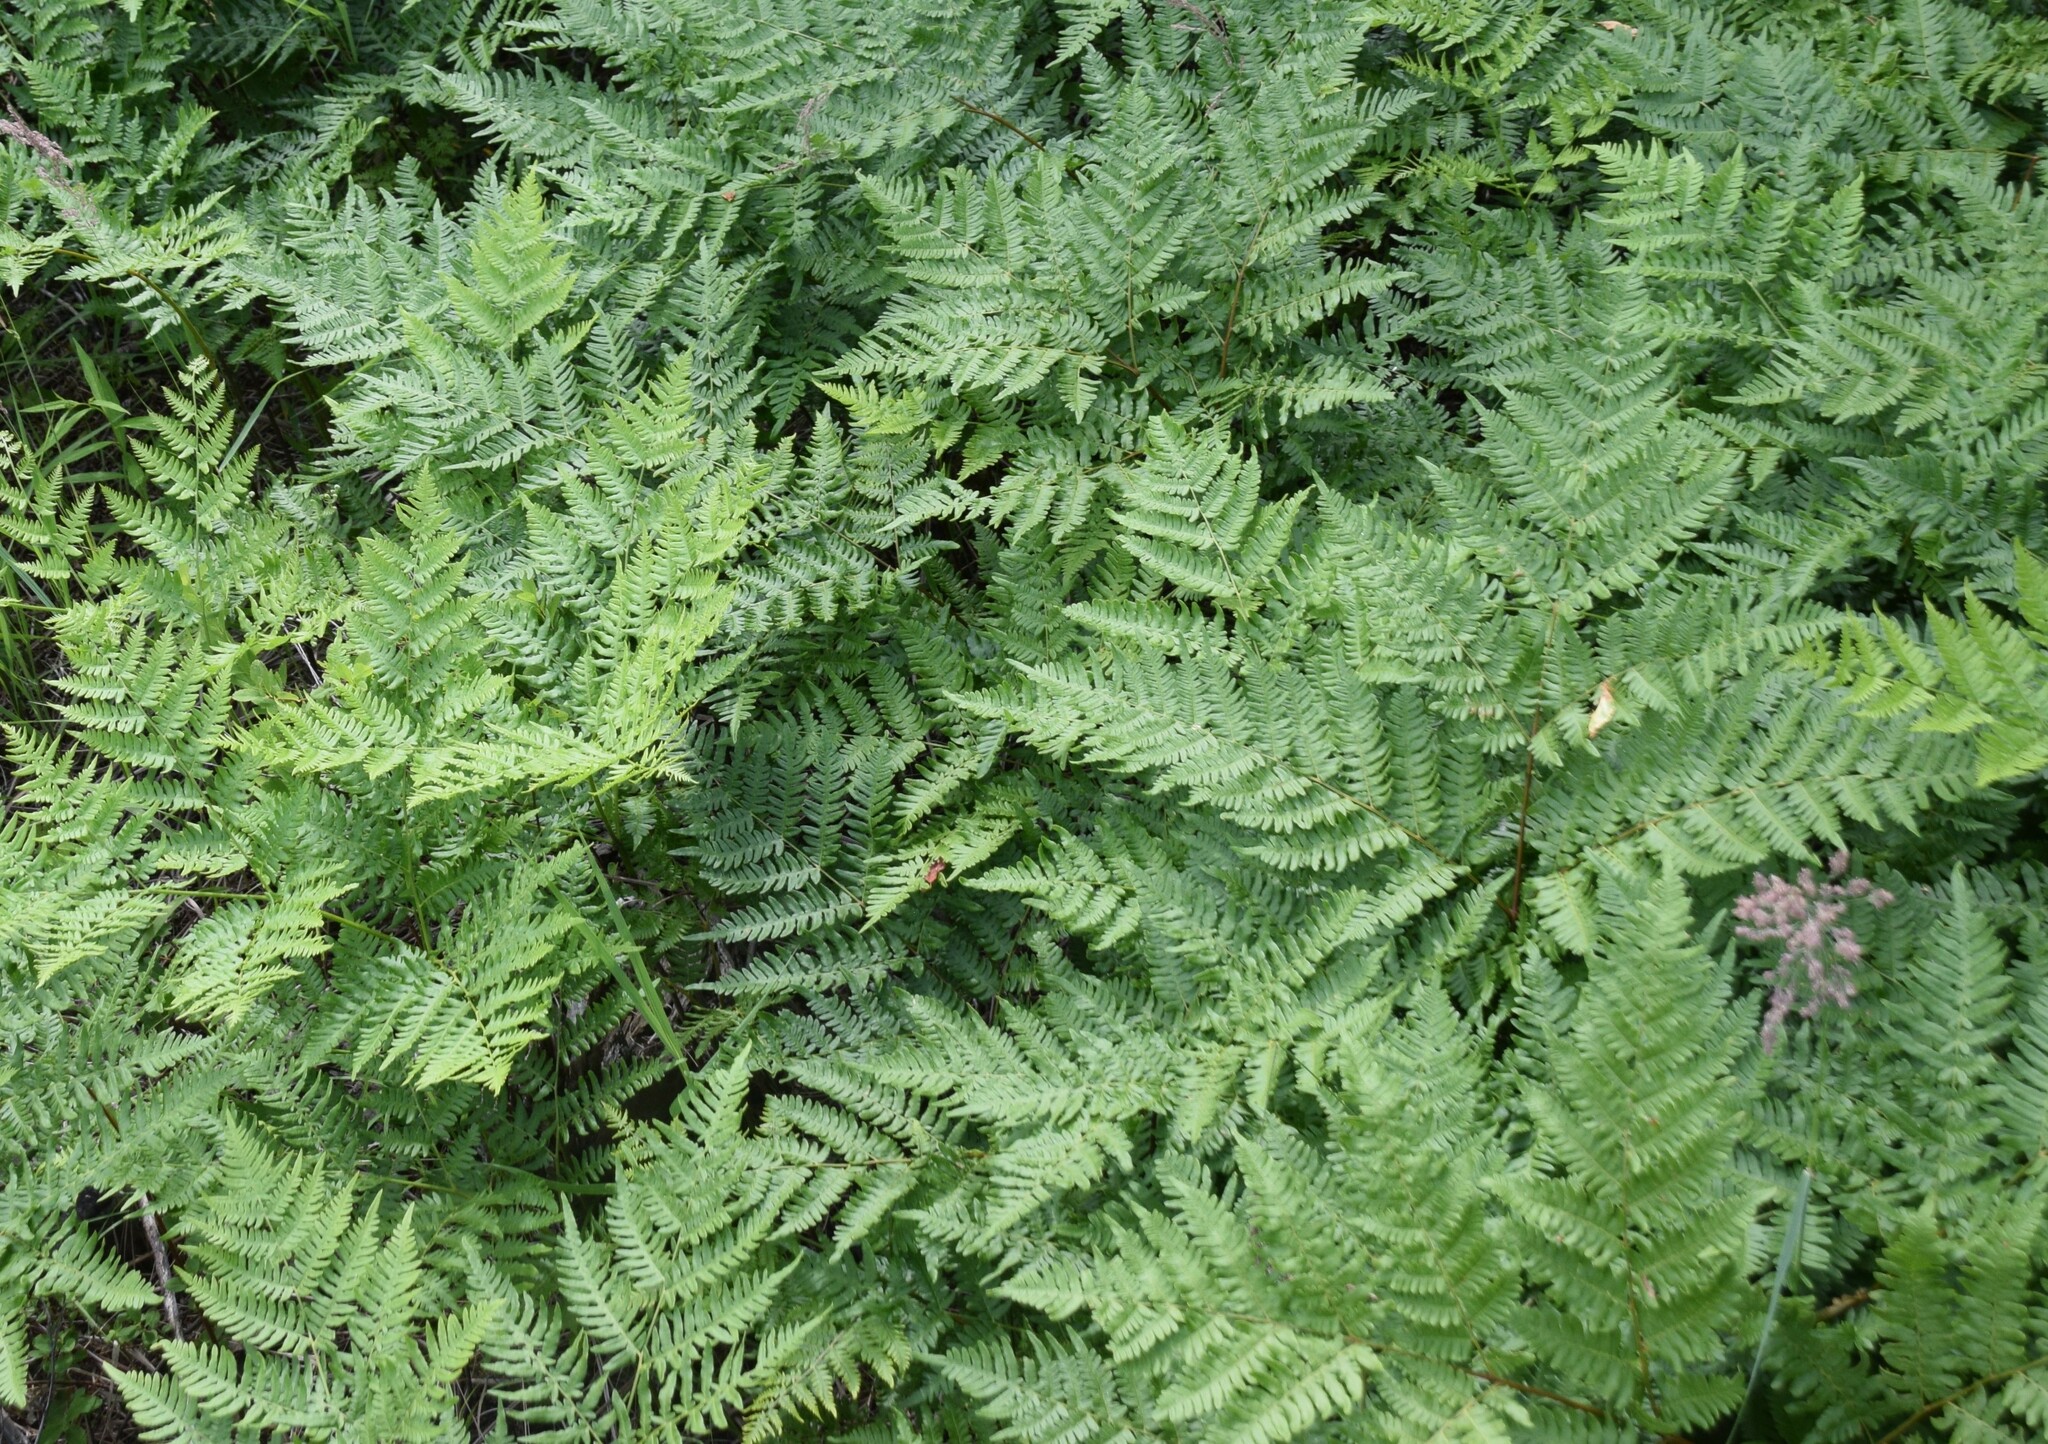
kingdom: Plantae
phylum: Tracheophyta
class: Polypodiopsida
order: Polypodiales
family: Dennstaedtiaceae
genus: Pteridium
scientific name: Pteridium aquilinum
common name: Bracken
